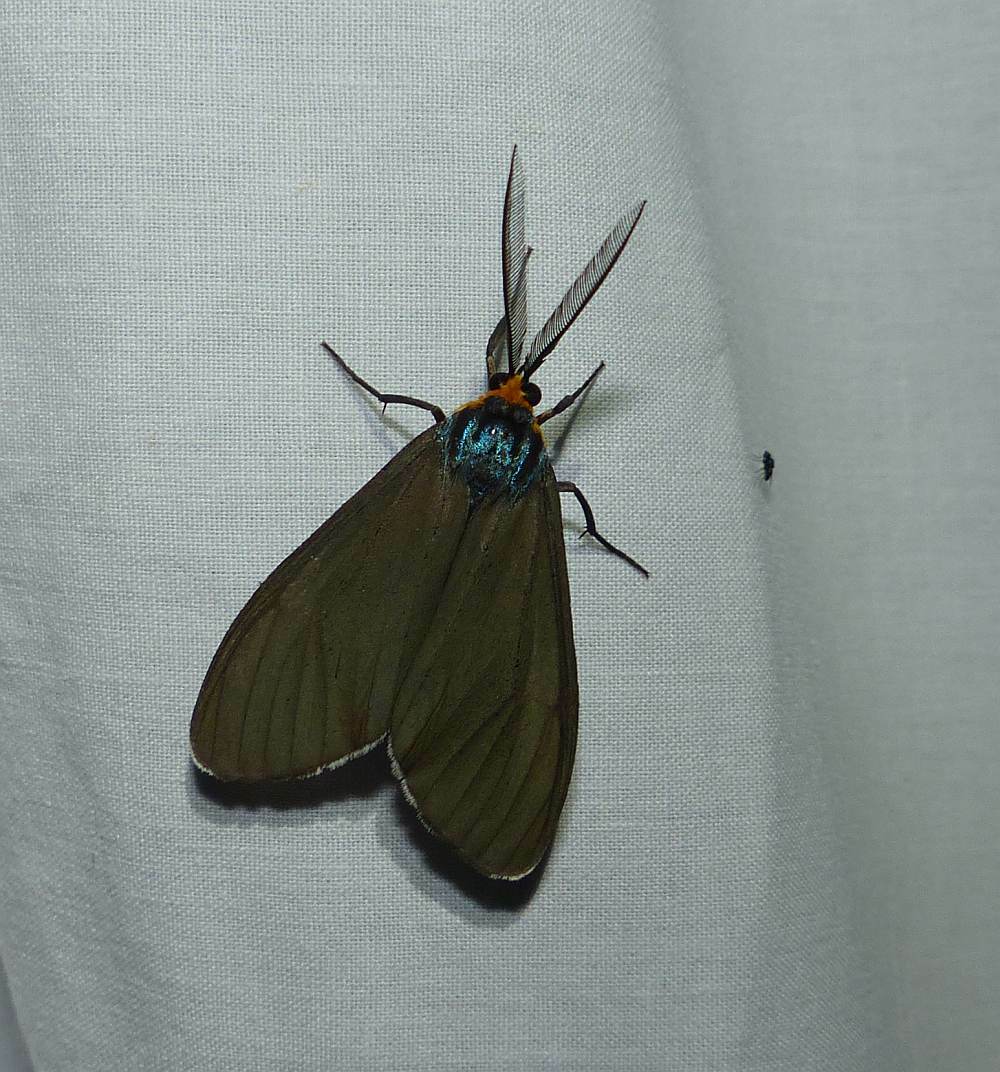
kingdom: Animalia
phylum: Arthropoda
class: Insecta
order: Lepidoptera
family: Erebidae
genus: Ctenucha
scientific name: Ctenucha virginica
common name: Virginia ctenucha moth
